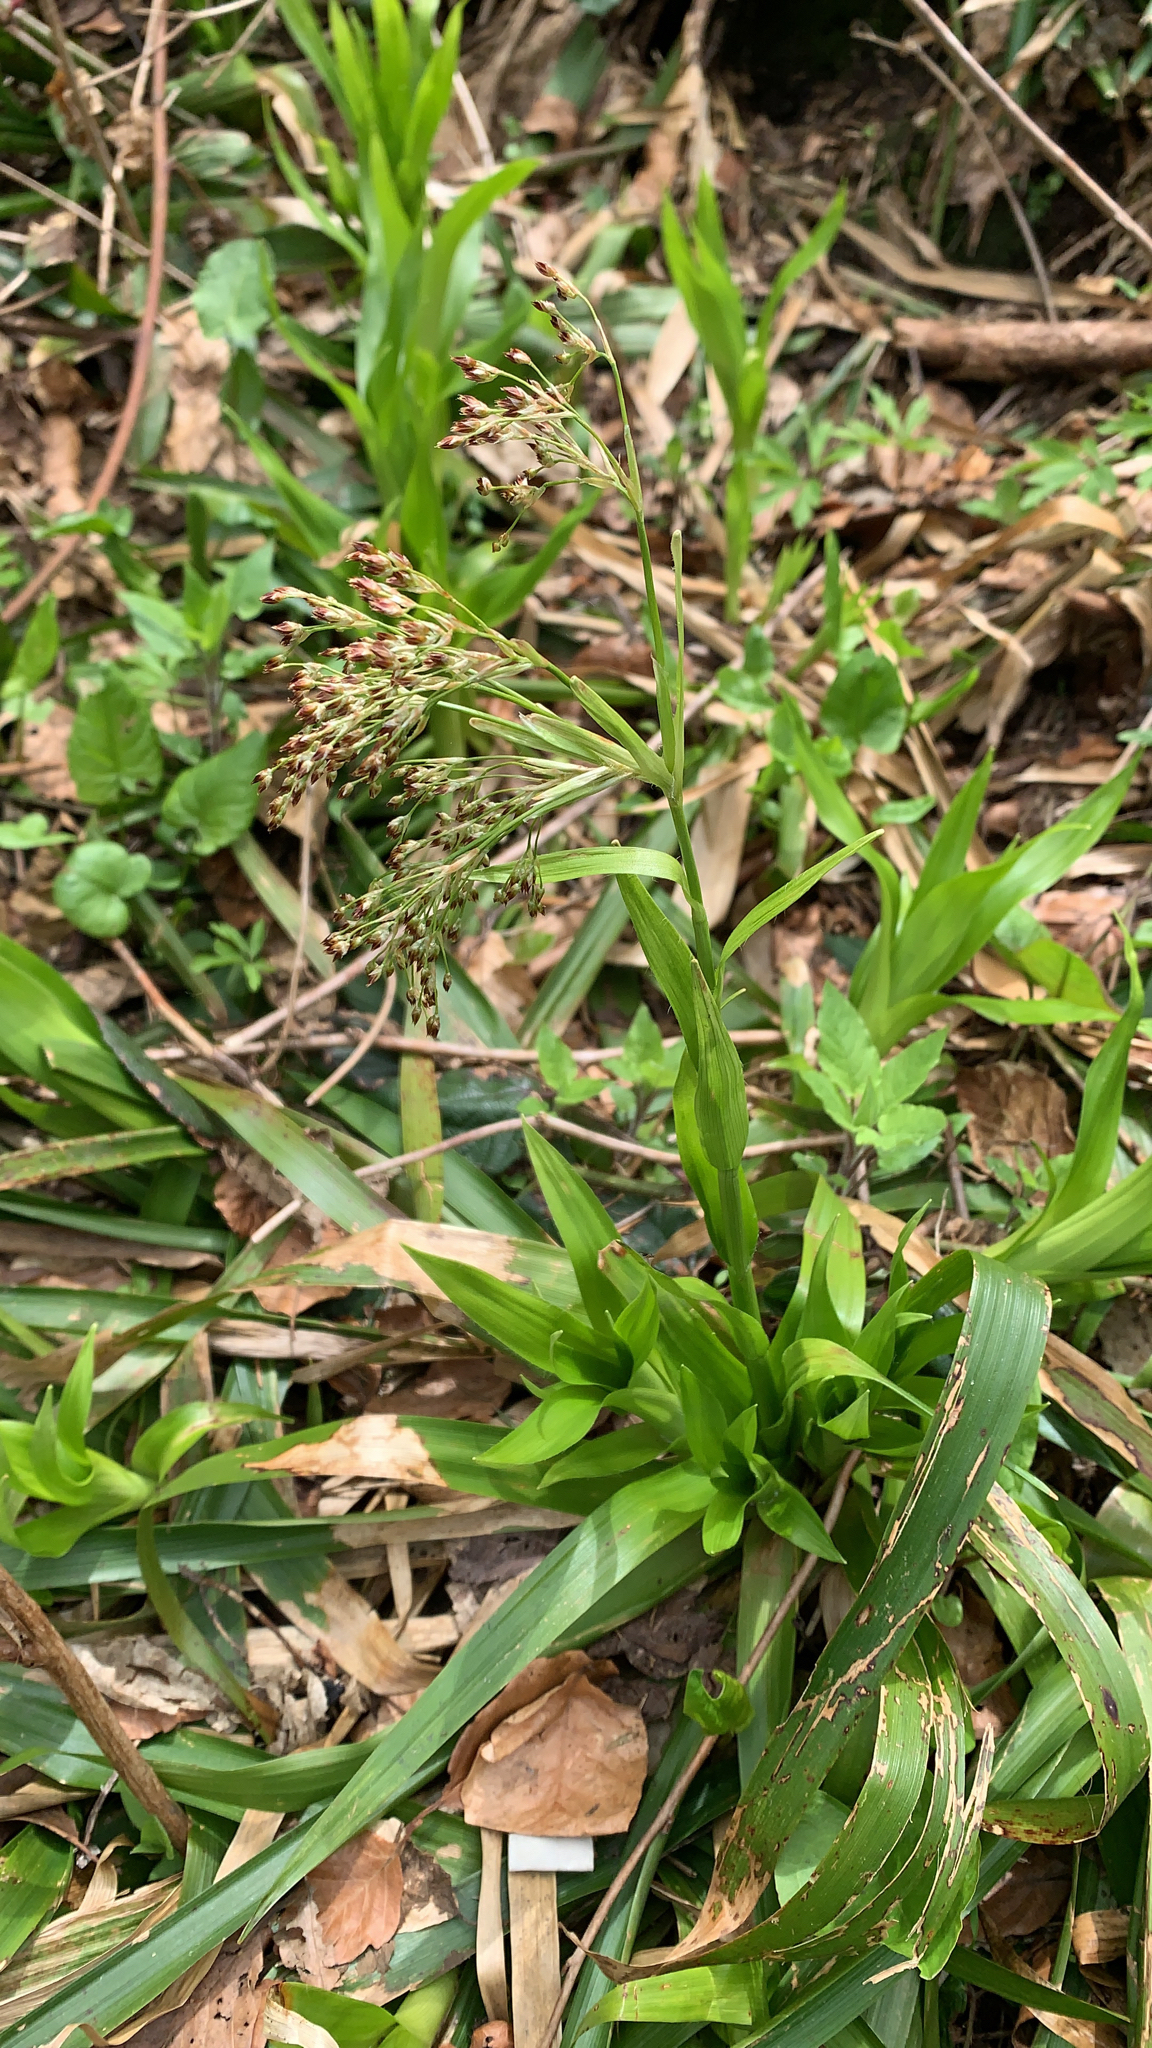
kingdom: Plantae
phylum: Tracheophyta
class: Liliopsida
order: Poales
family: Juncaceae
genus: Luzula
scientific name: Luzula sylvatica
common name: Great wood-rush
